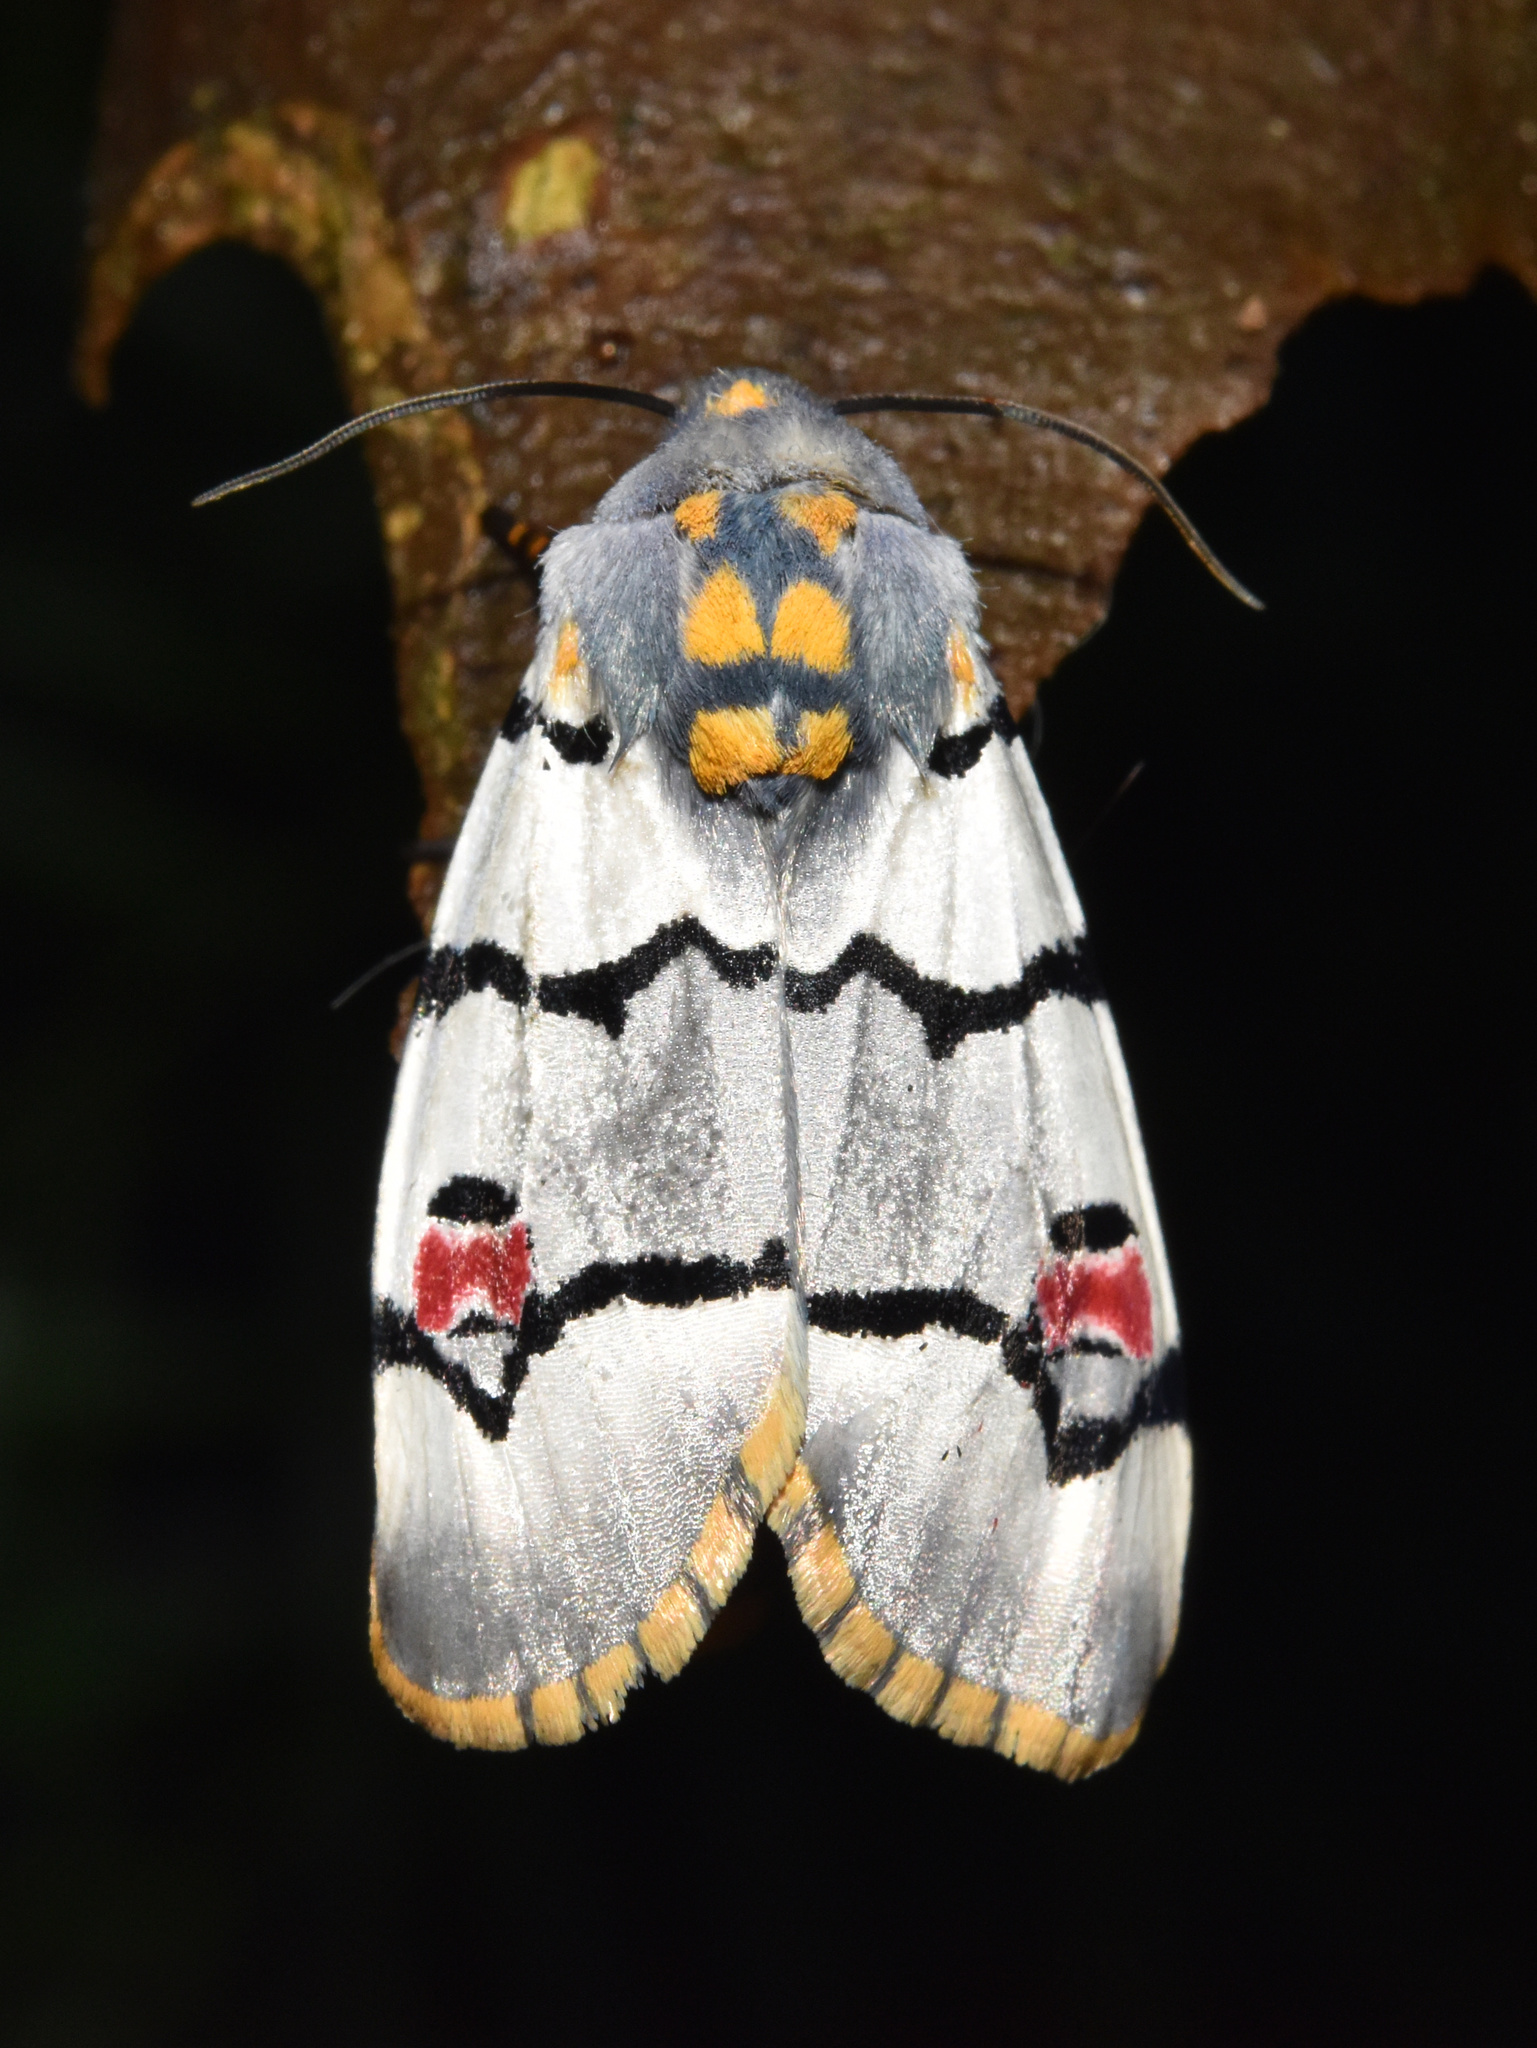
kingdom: Animalia
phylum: Arthropoda
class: Insecta
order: Lepidoptera
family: Noctuidae
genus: Diaphone
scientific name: Diaphone eumela
